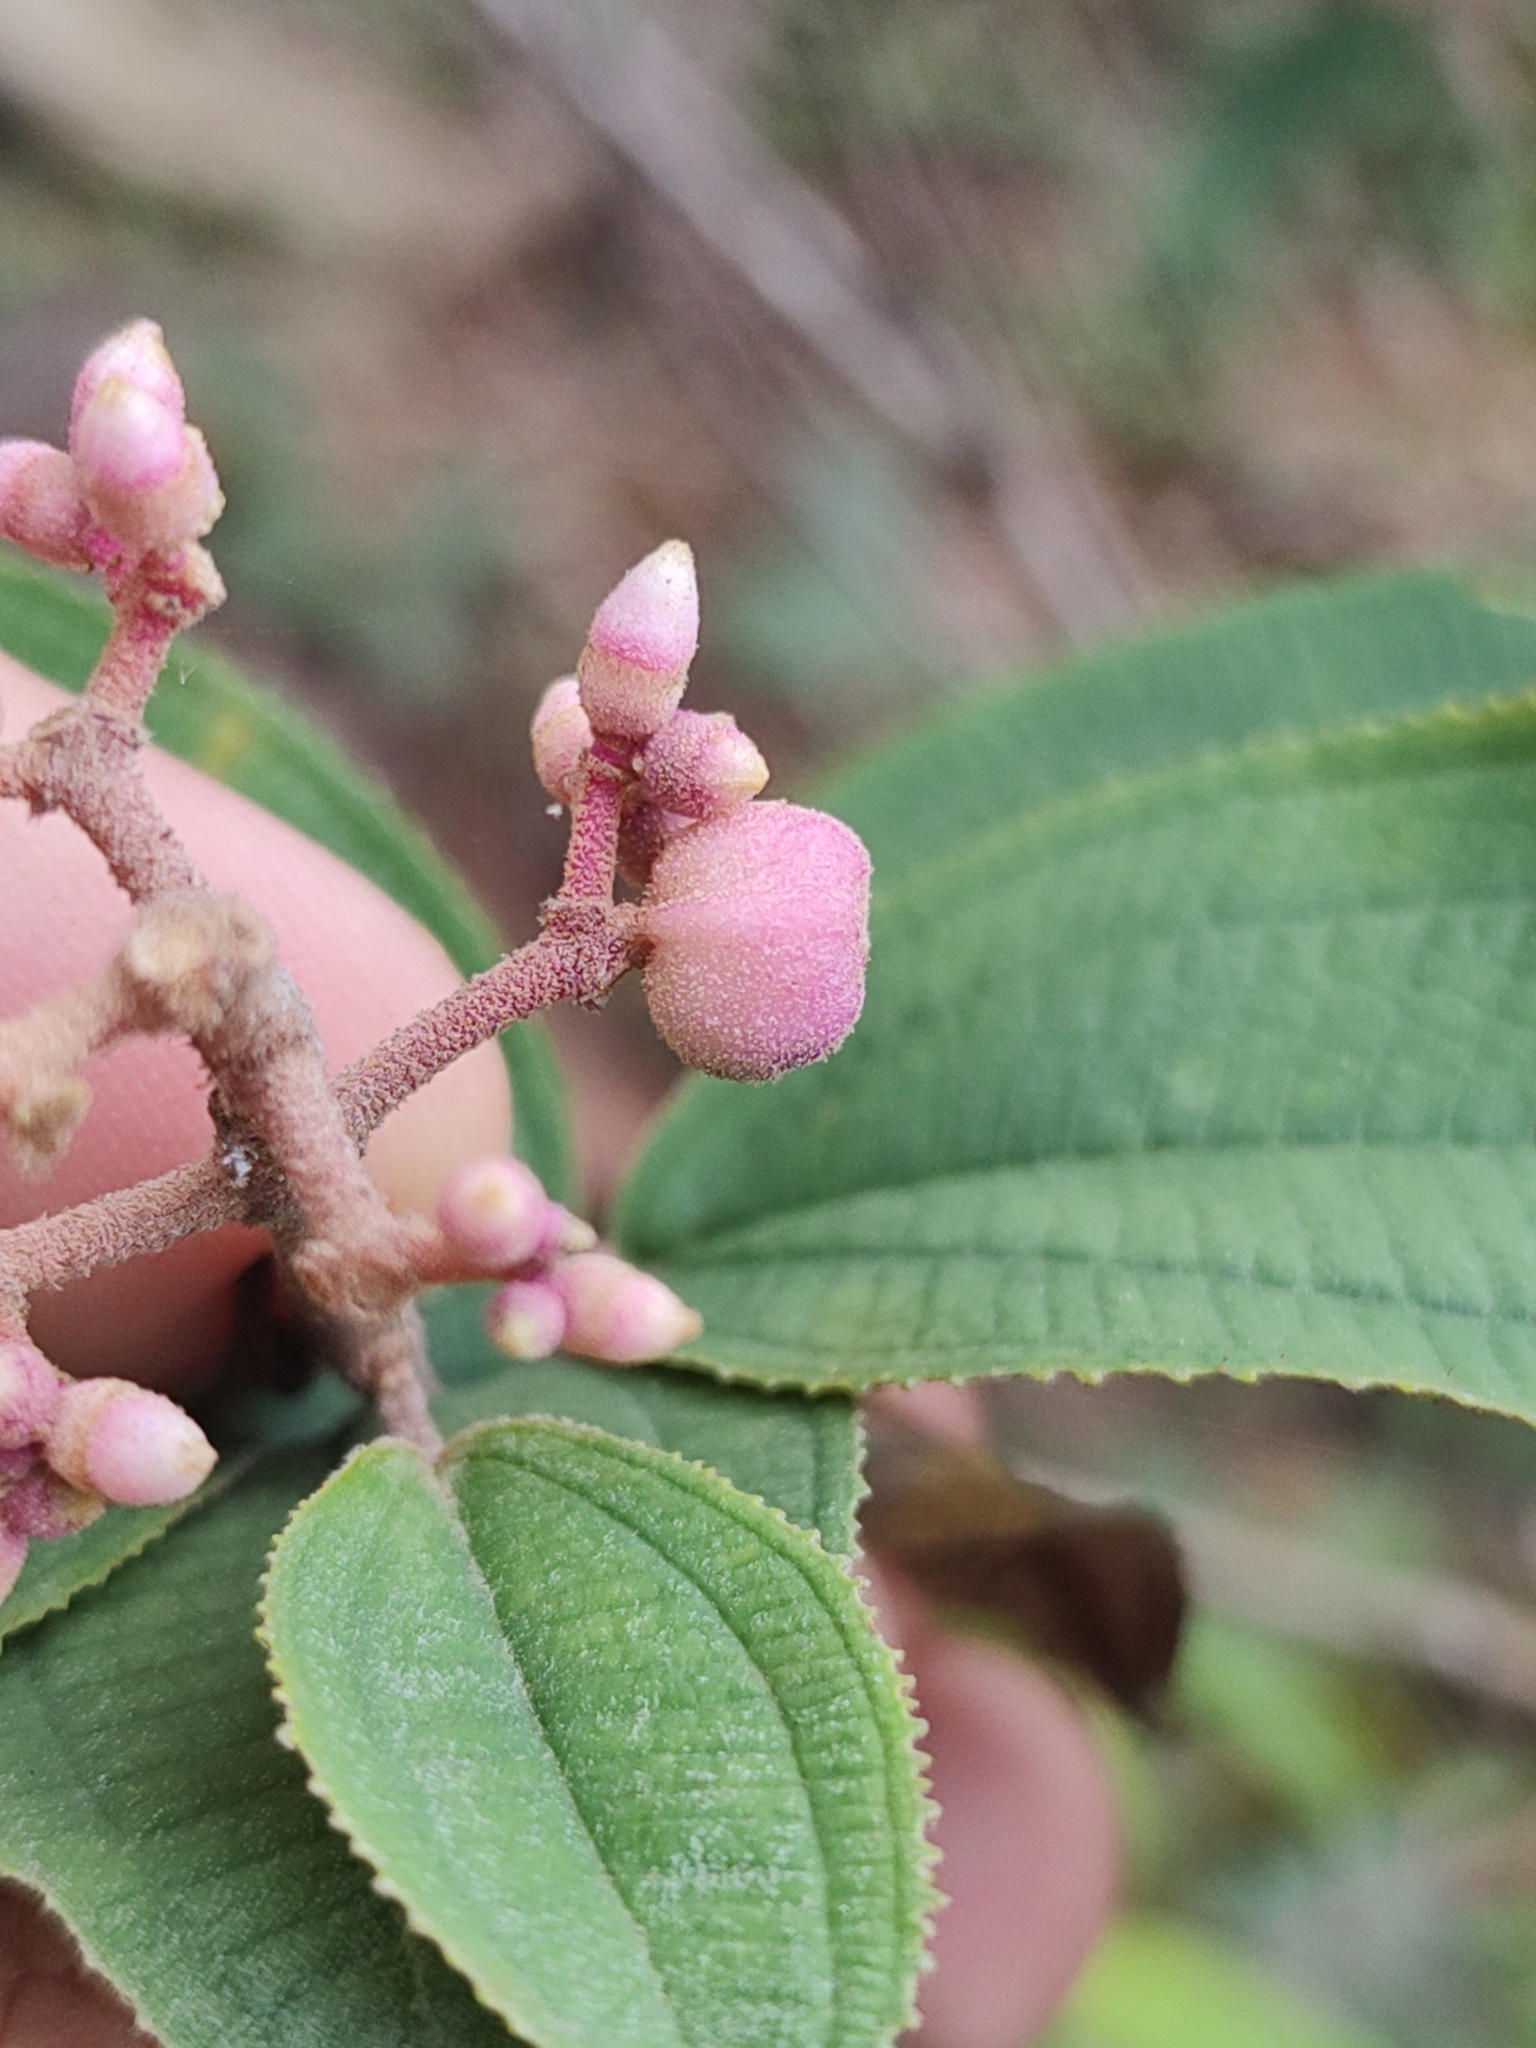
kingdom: Plantae
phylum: Tracheophyta
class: Magnoliopsida
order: Myrtales
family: Melastomataceae
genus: Miconia
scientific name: Miconia xalapensis
